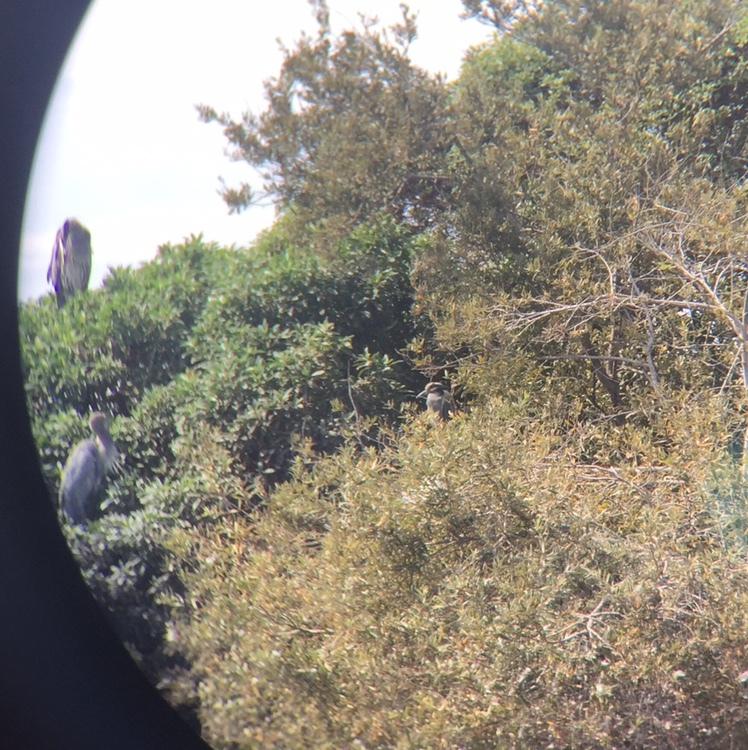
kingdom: Animalia
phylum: Chordata
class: Aves
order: Pelecaniformes
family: Ardeidae
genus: Nyctanassa
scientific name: Nyctanassa violacea
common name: Yellow-crowned night heron
